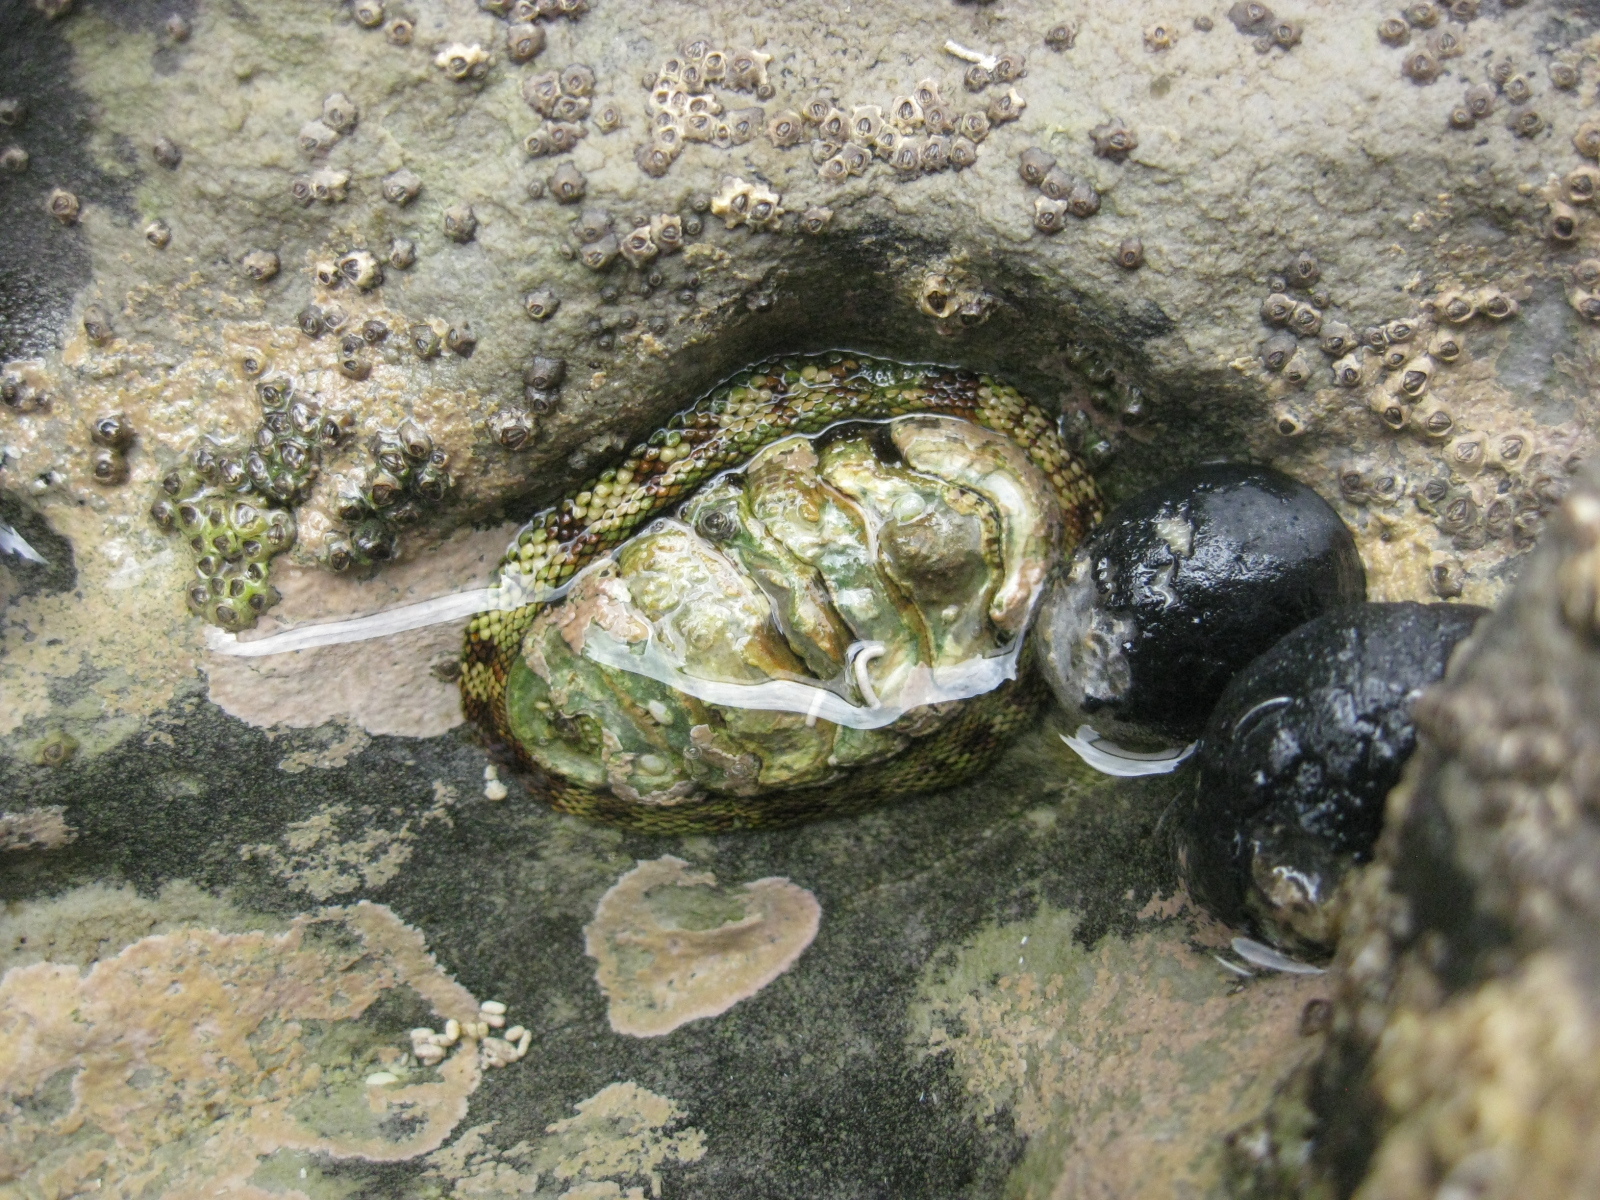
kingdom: Animalia
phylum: Mollusca
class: Polyplacophora
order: Chitonida
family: Chitonidae
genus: Sypharochiton
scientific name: Sypharochiton pelliserpentis
